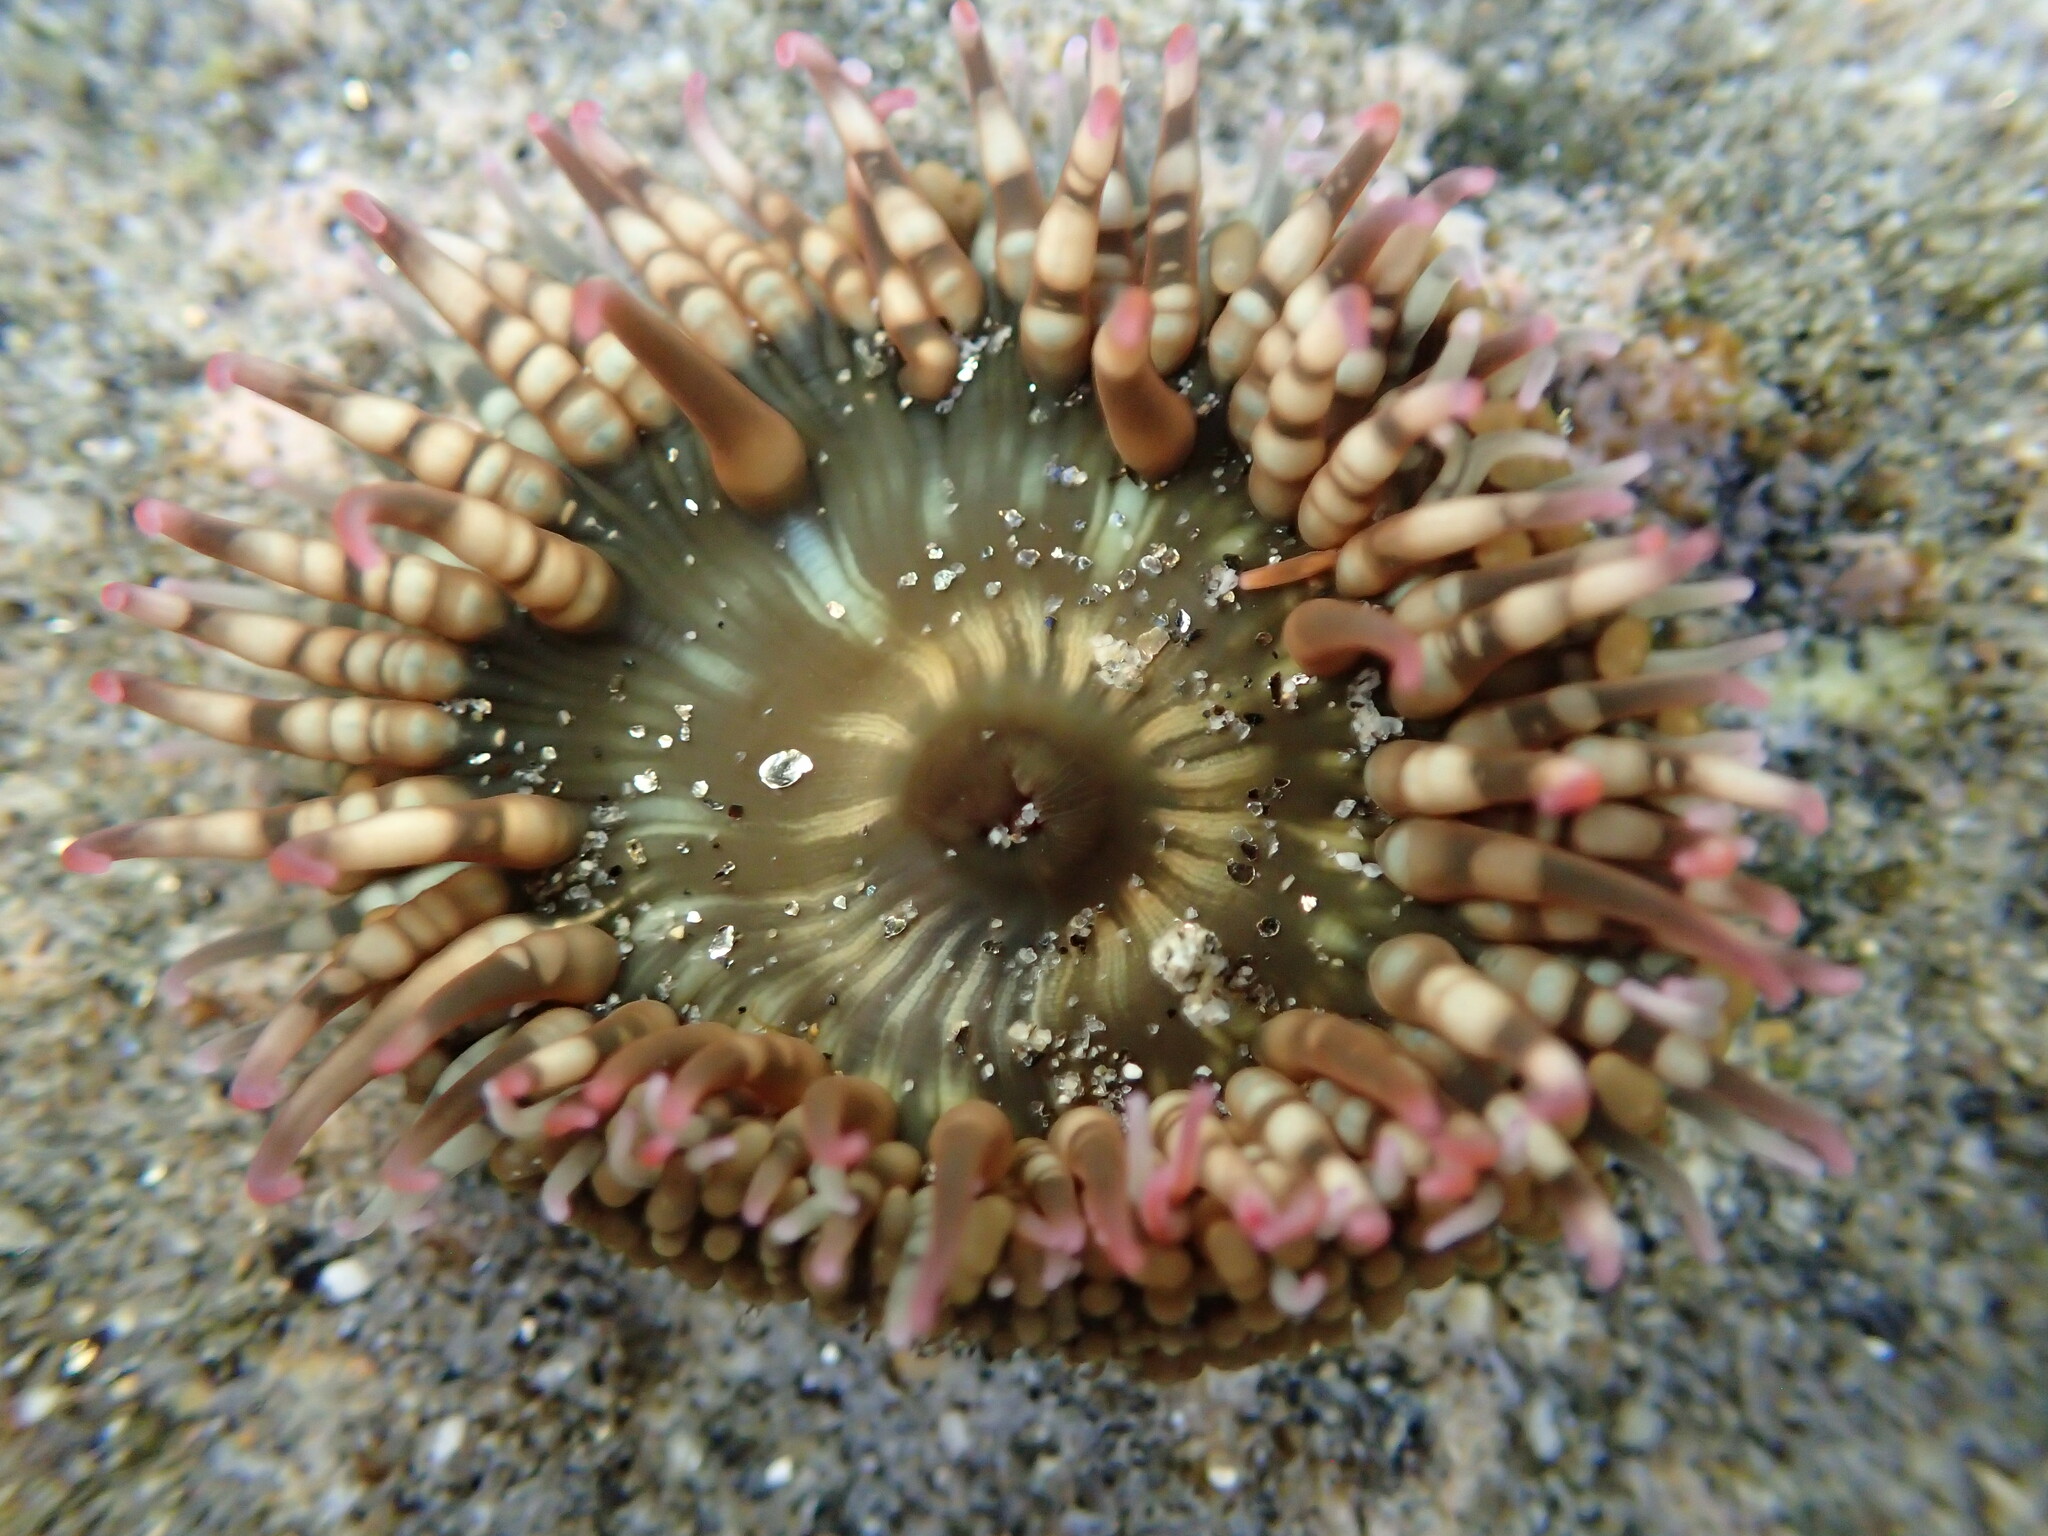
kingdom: Animalia
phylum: Cnidaria
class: Anthozoa
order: Actiniaria
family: Actiniidae
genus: Bunodosoma
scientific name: Bunodosoma californicum
